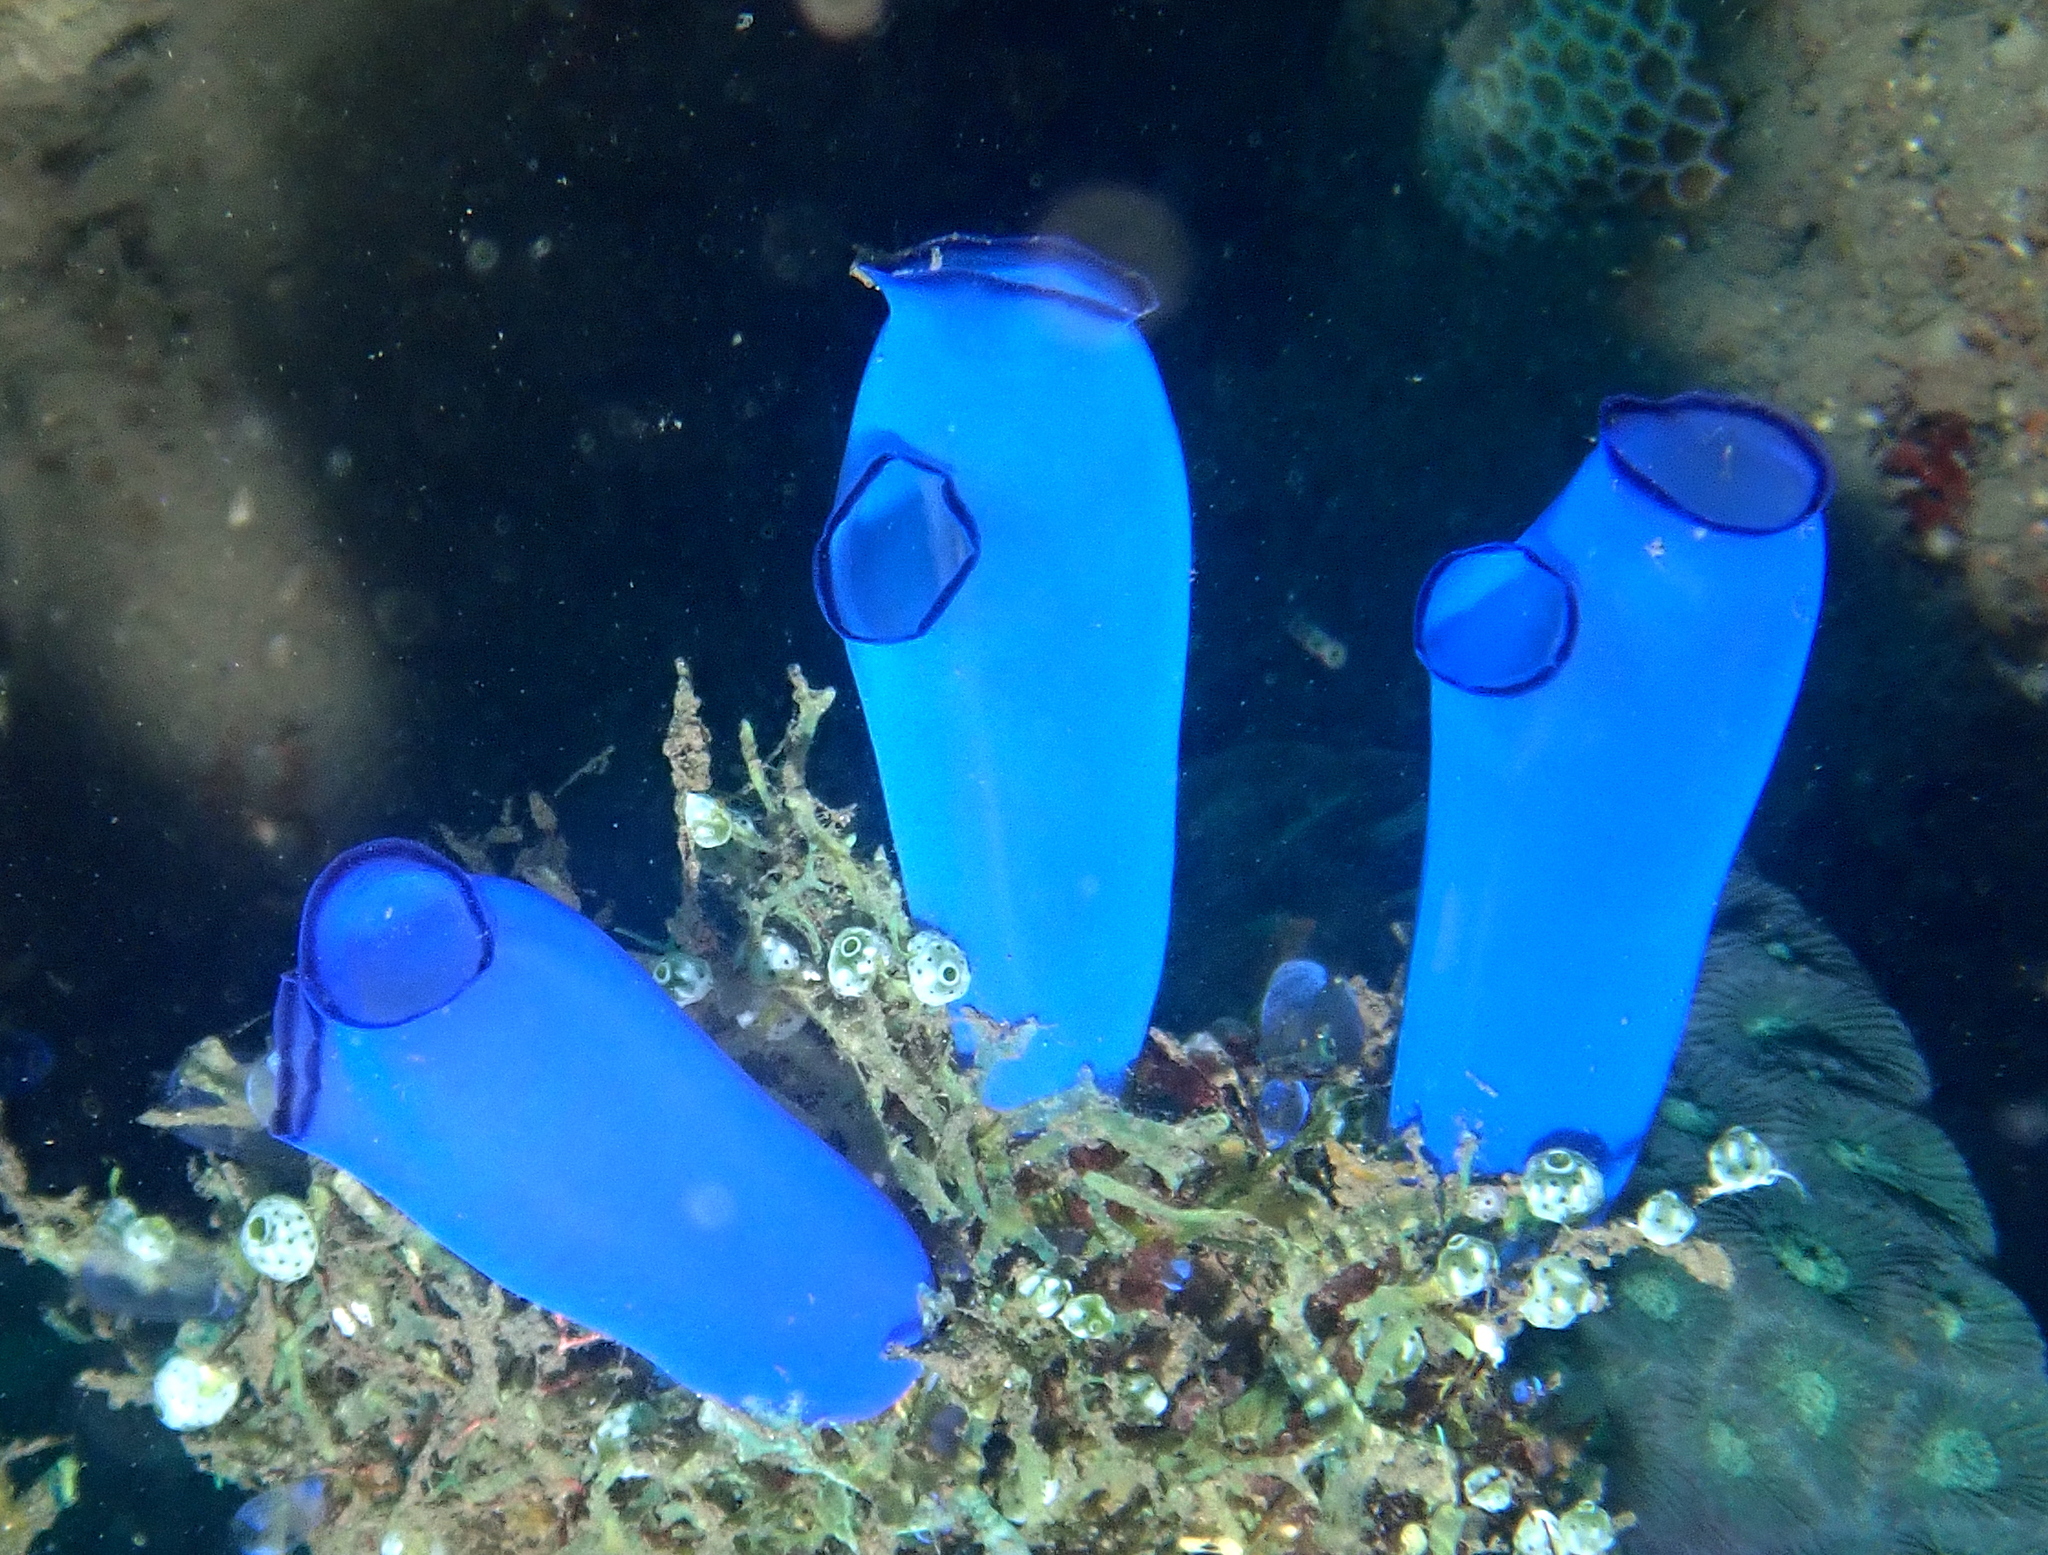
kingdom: Animalia
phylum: Chordata
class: Ascidiacea
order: Aplousobranchia
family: Diazonidae
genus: Rhopalaea
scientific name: Rhopalaea fusca
